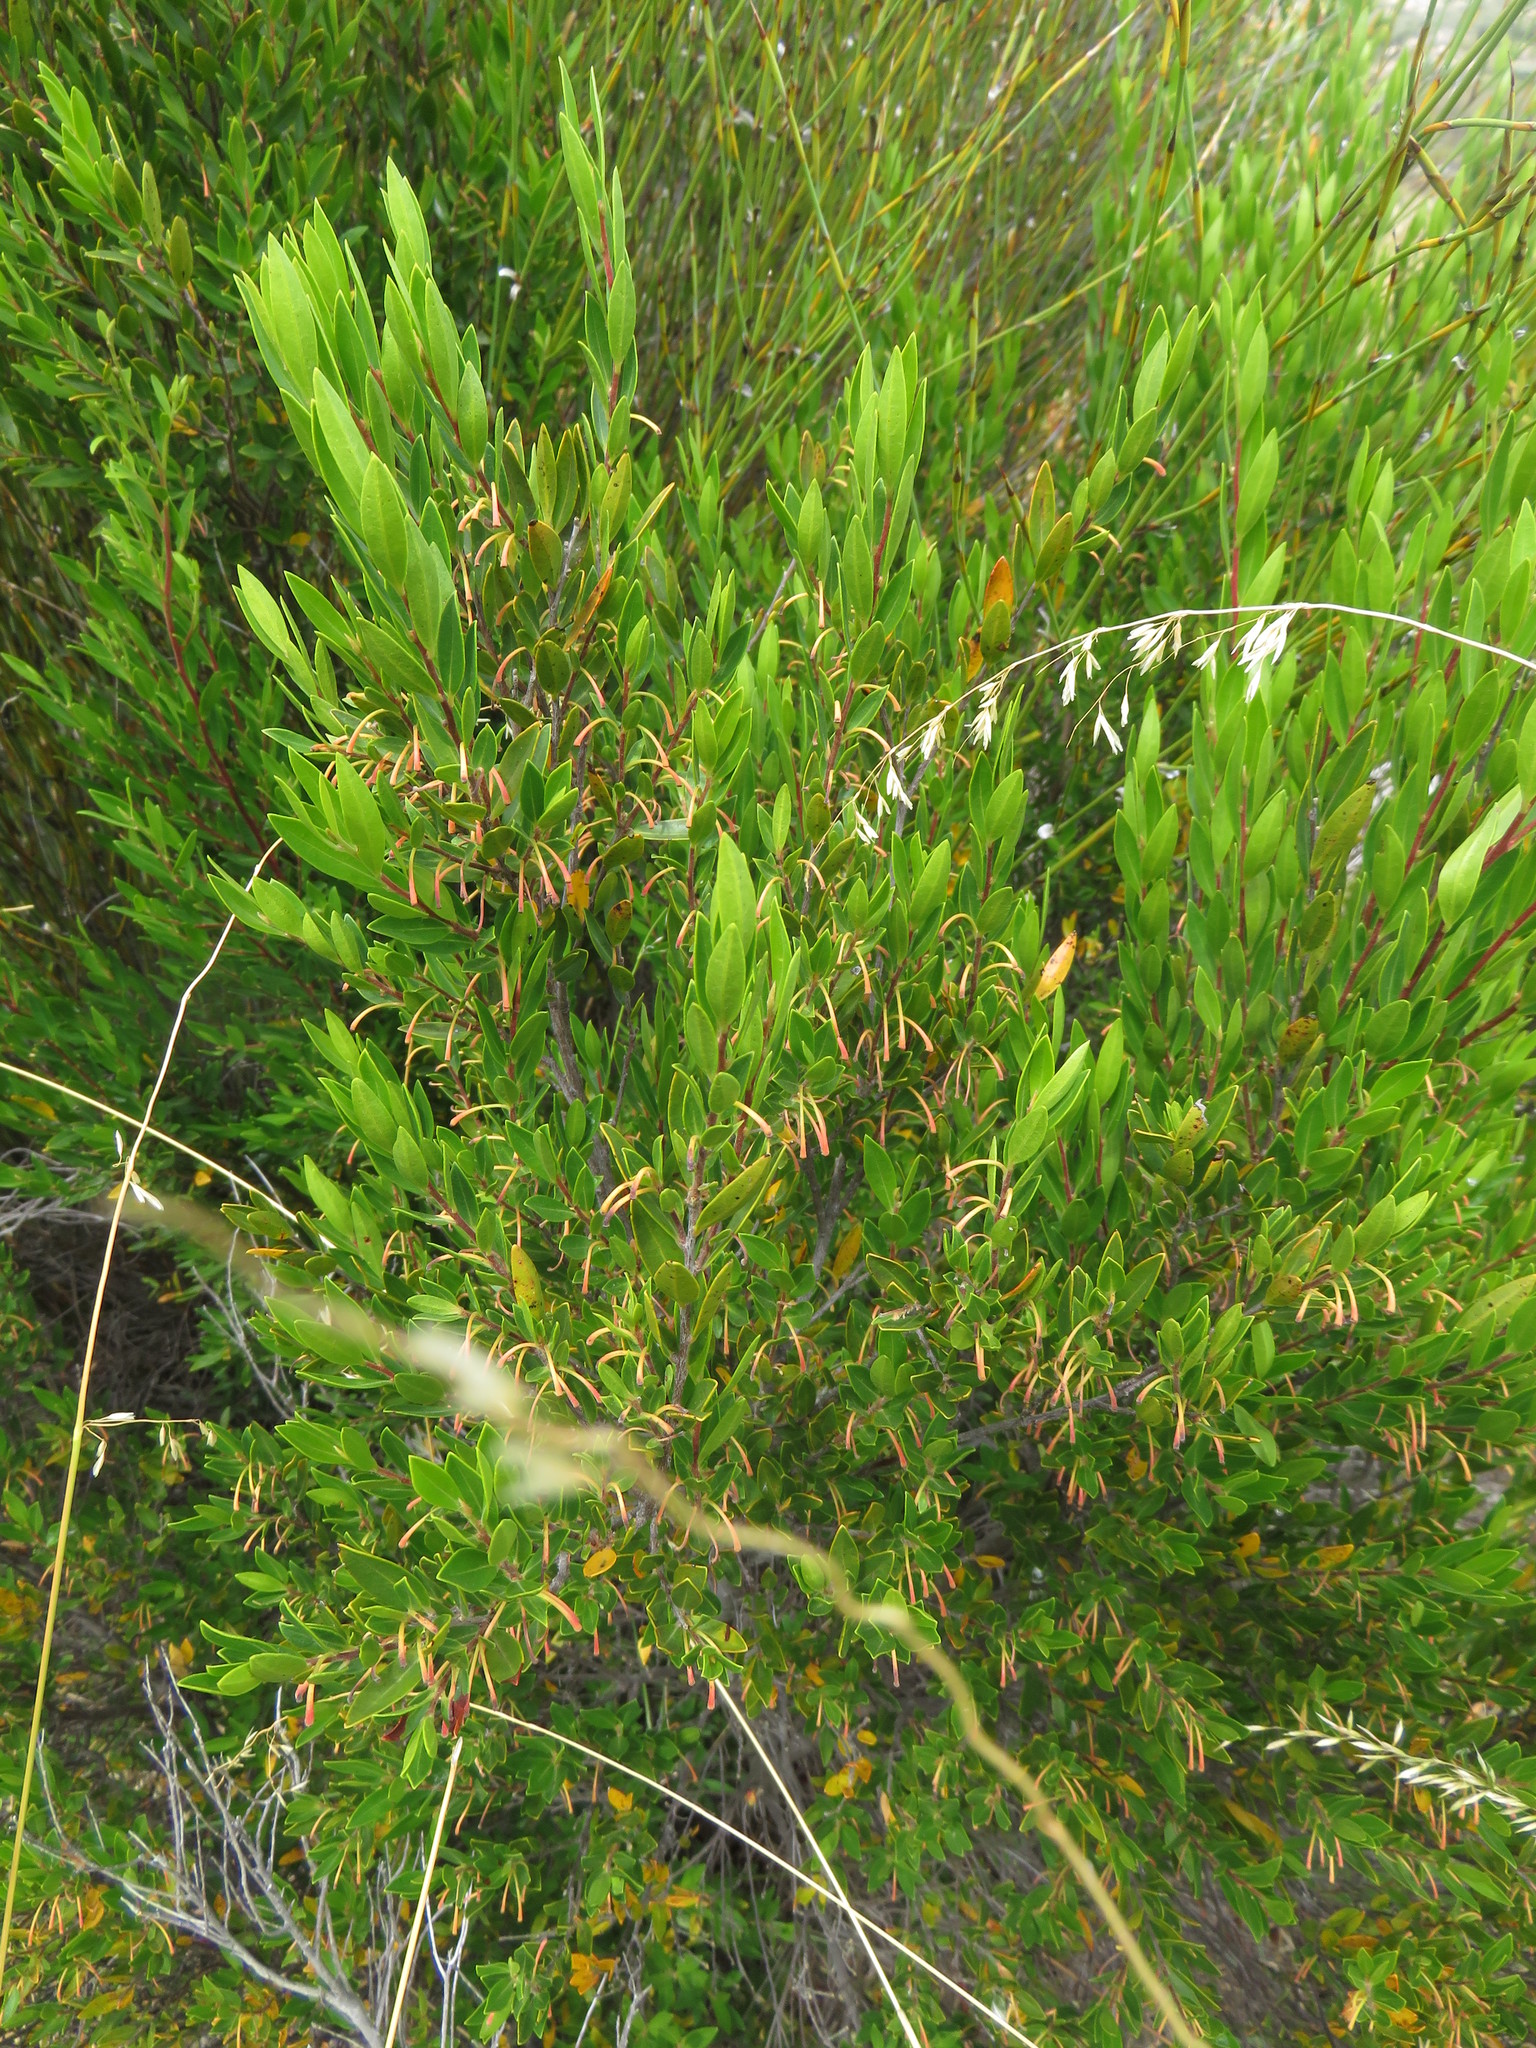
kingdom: Plantae
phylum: Tracheophyta
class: Magnoliopsida
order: Ericales
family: Ebenaceae
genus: Diospyros
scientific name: Diospyros glabra
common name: Fynbos star apple
